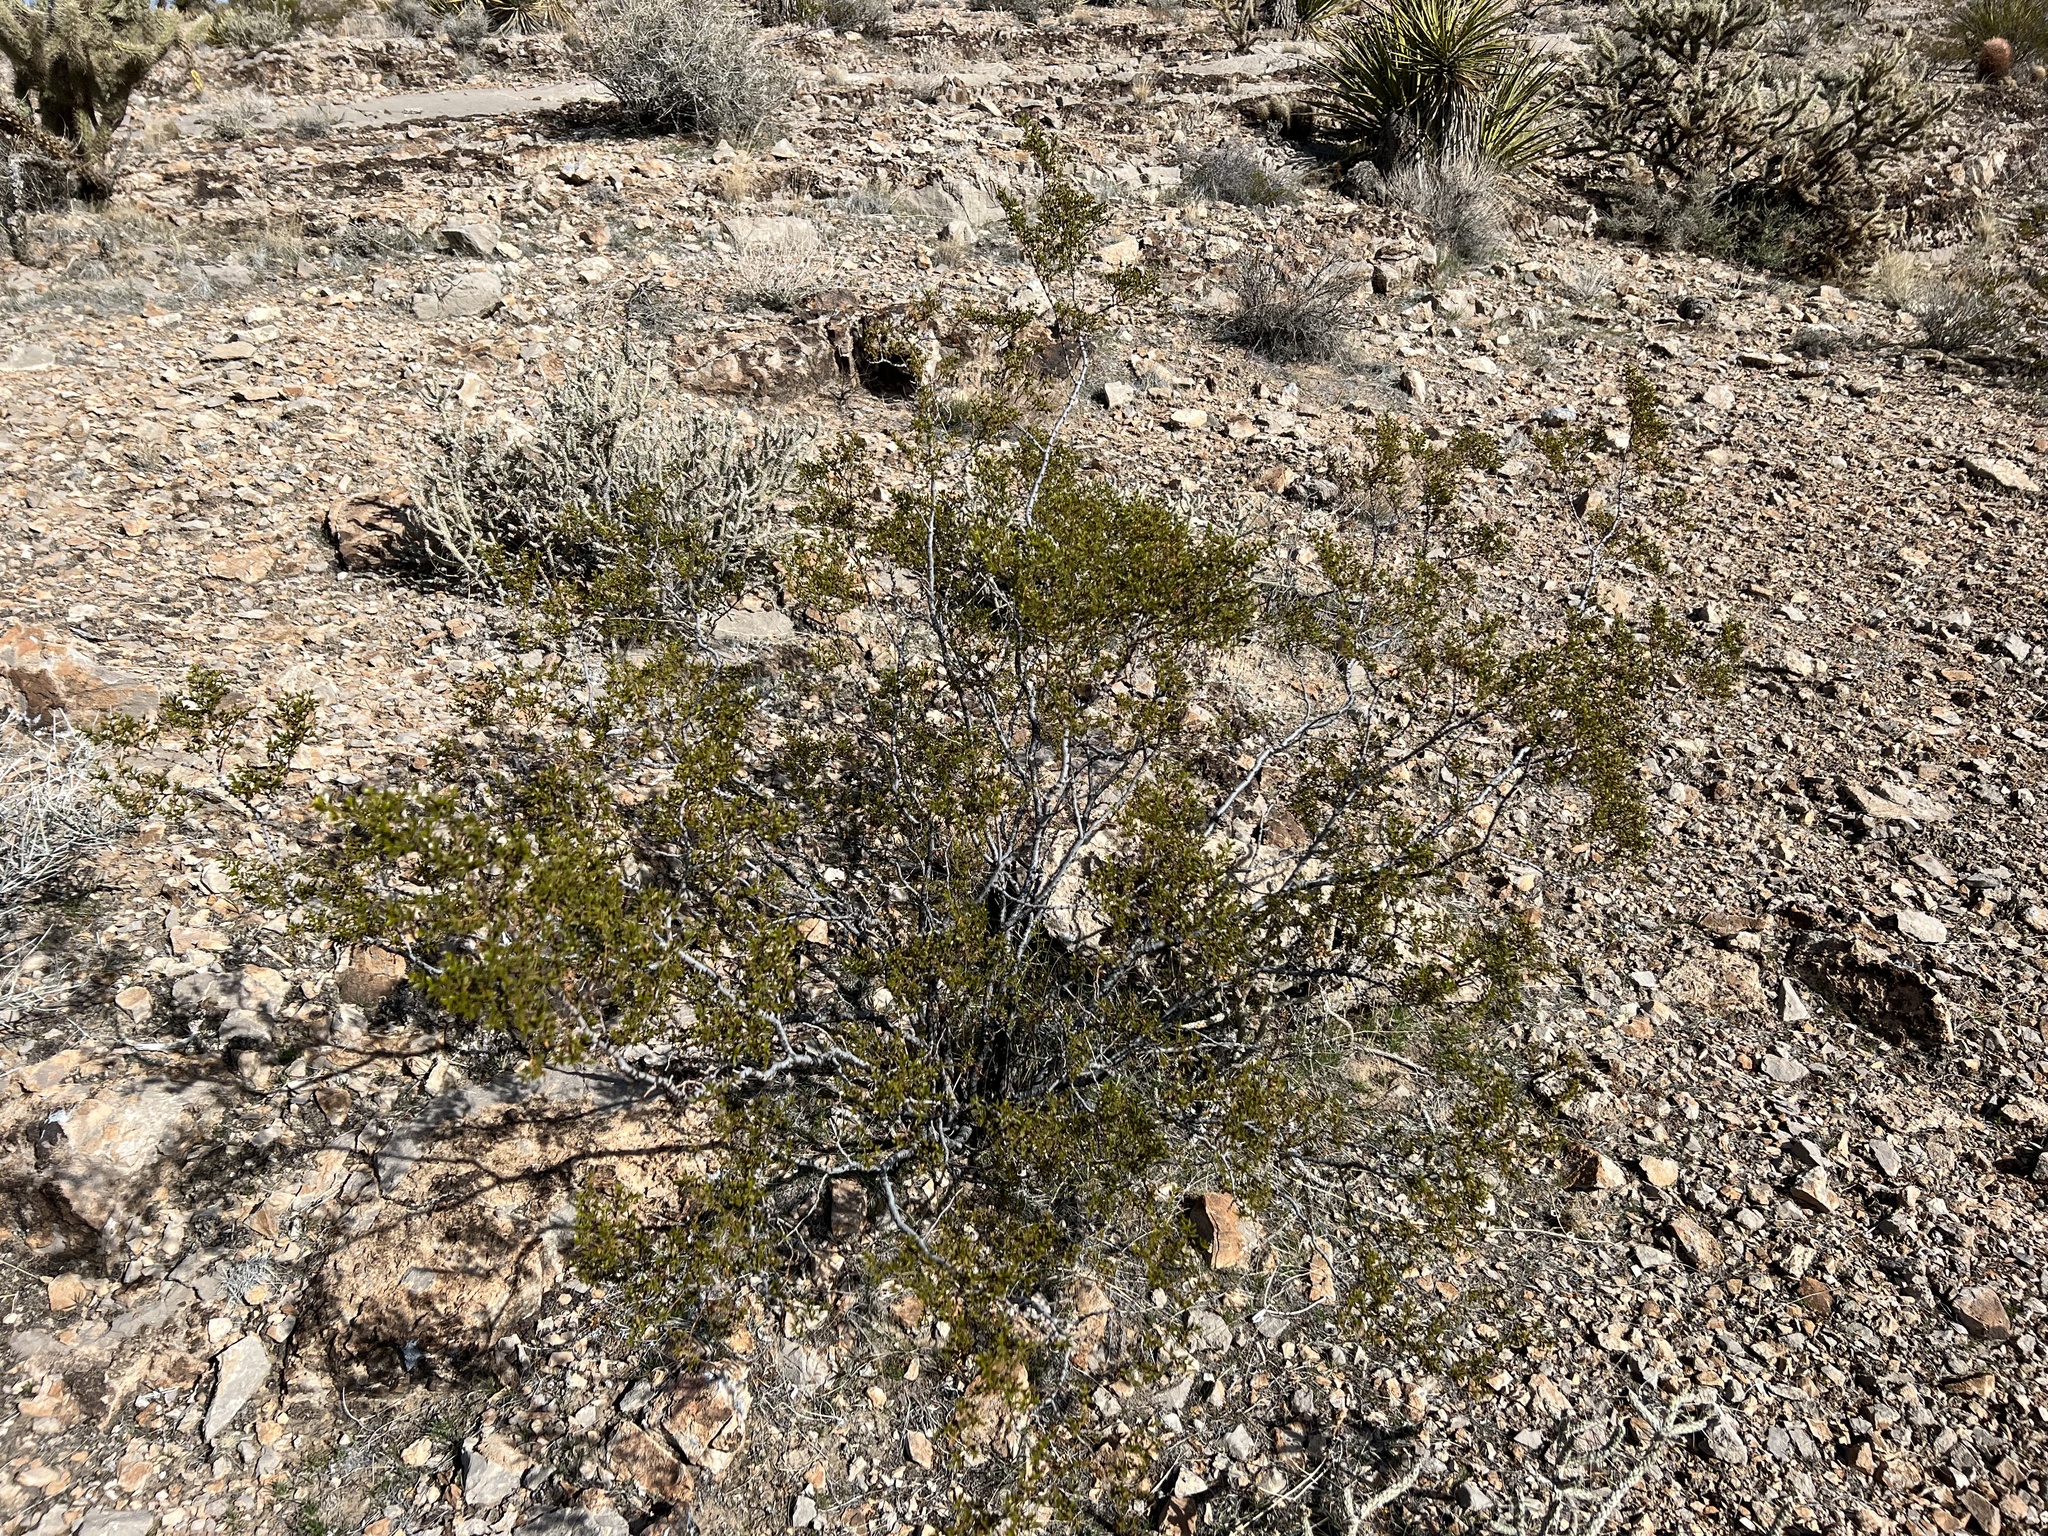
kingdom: Plantae
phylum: Tracheophyta
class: Magnoliopsida
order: Zygophyllales
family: Zygophyllaceae
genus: Larrea
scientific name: Larrea tridentata
